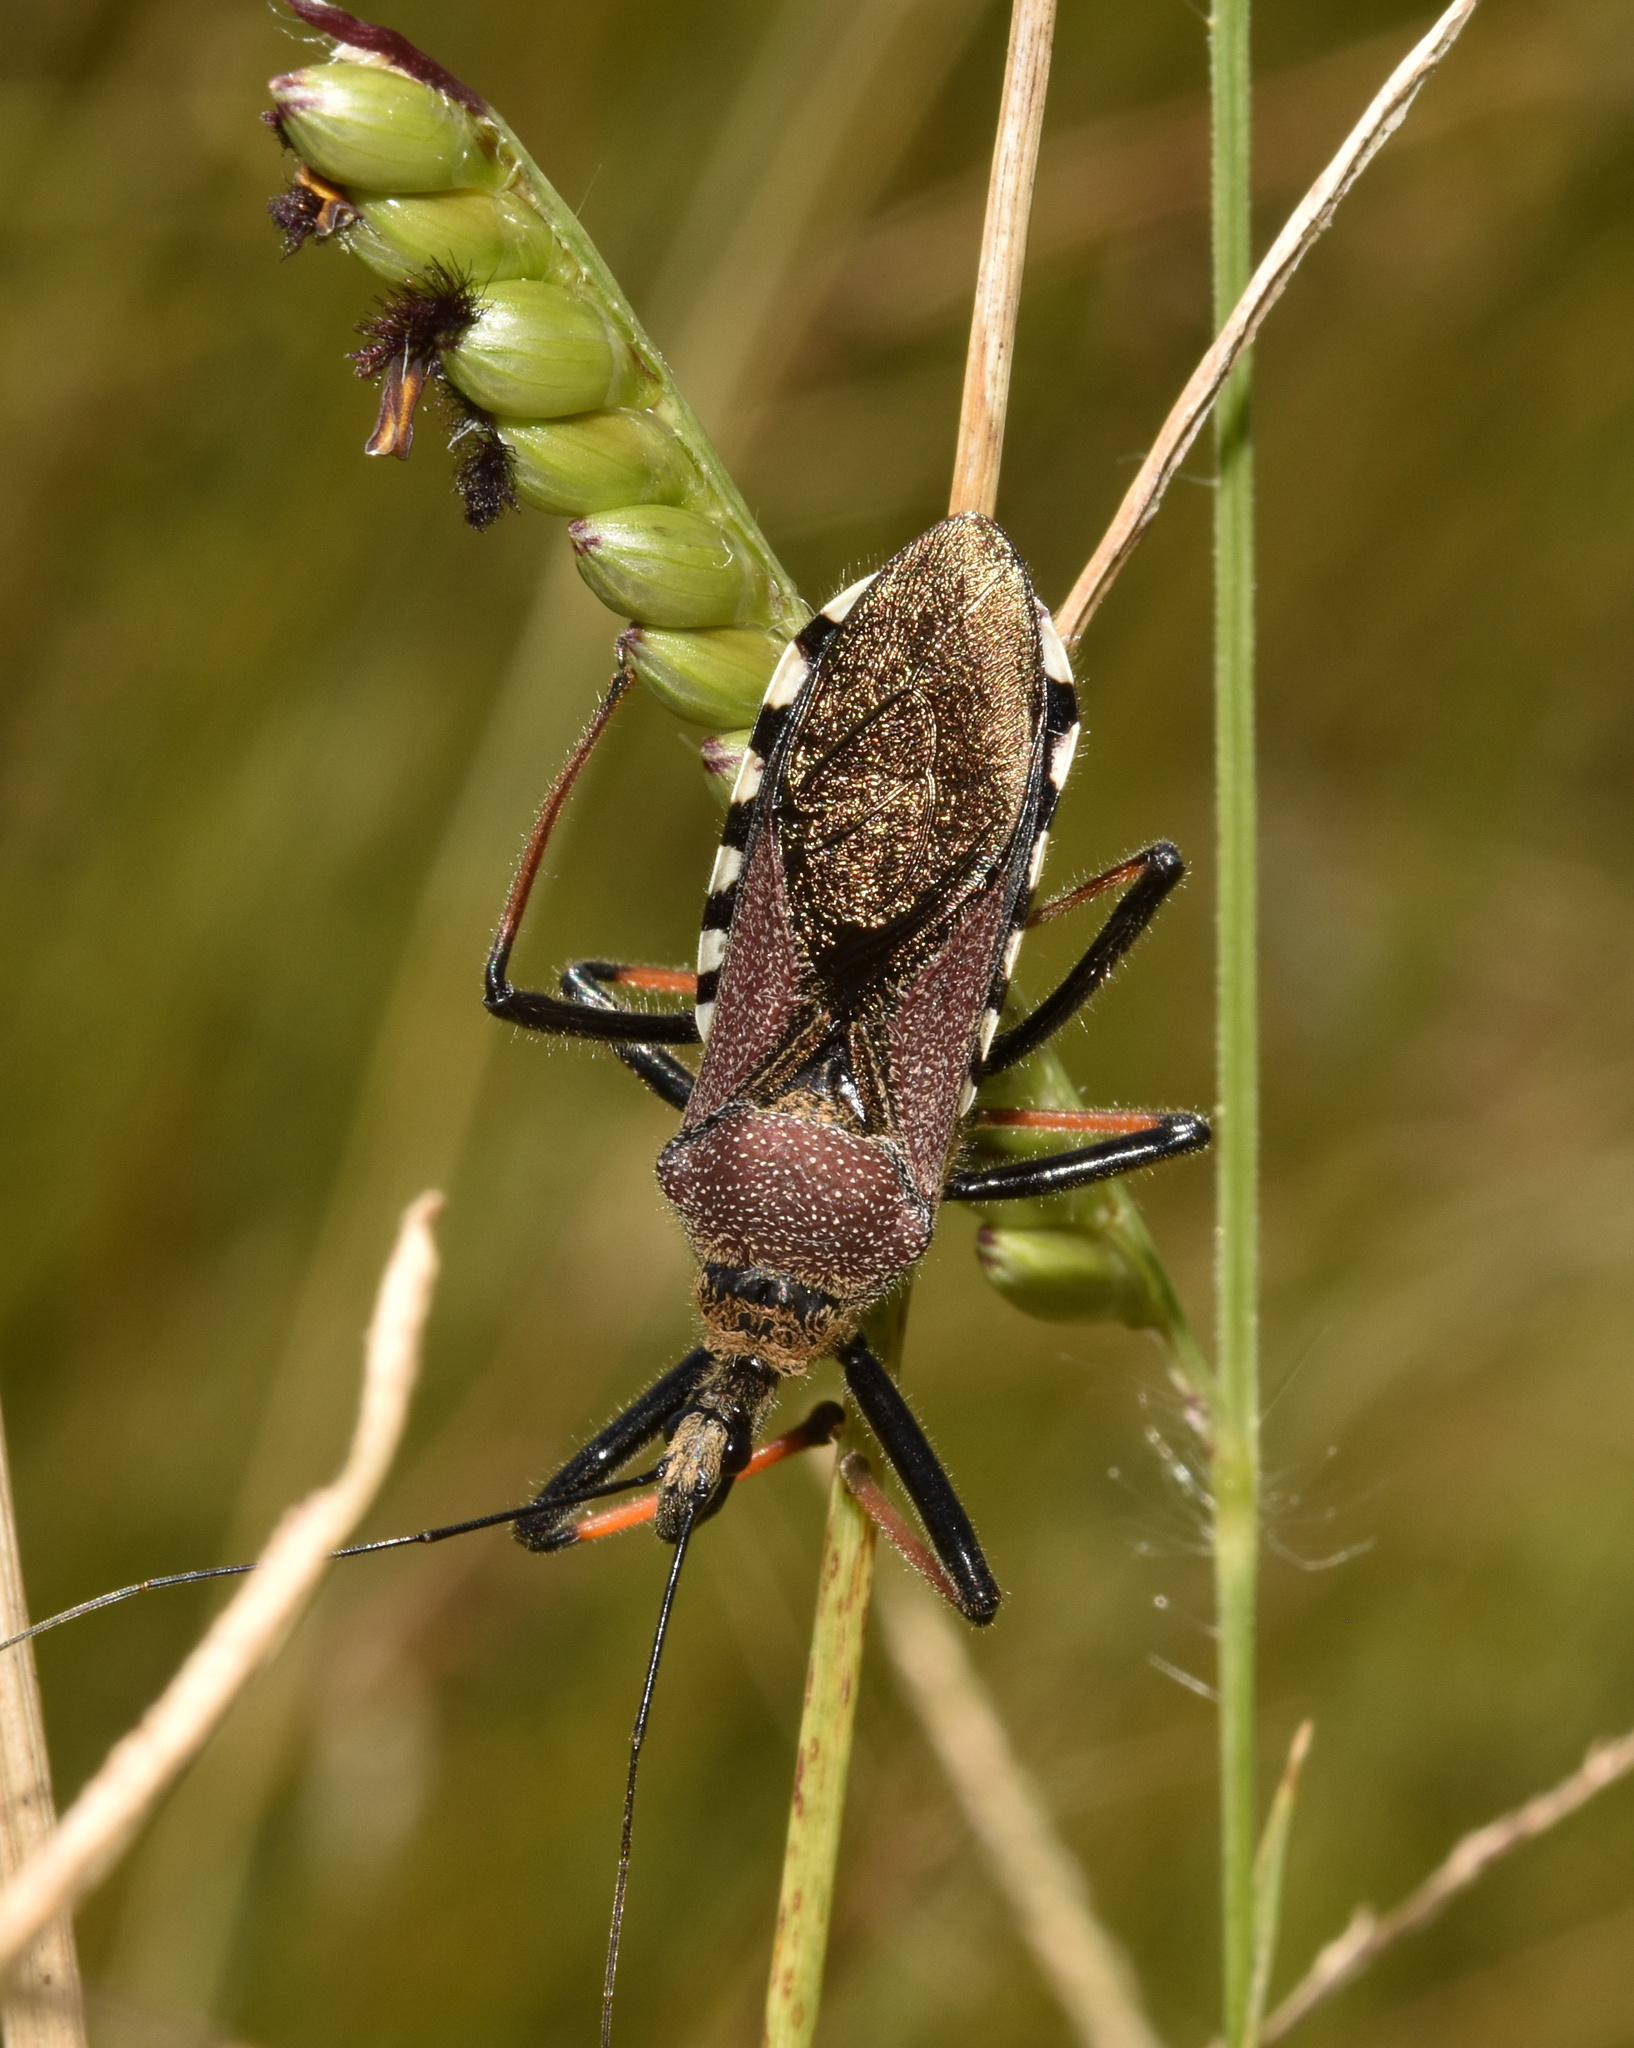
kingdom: Animalia
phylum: Arthropoda
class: Insecta
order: Hemiptera
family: Reduviidae
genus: Rhynocoris
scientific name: Rhynocoris erythrocnemis
